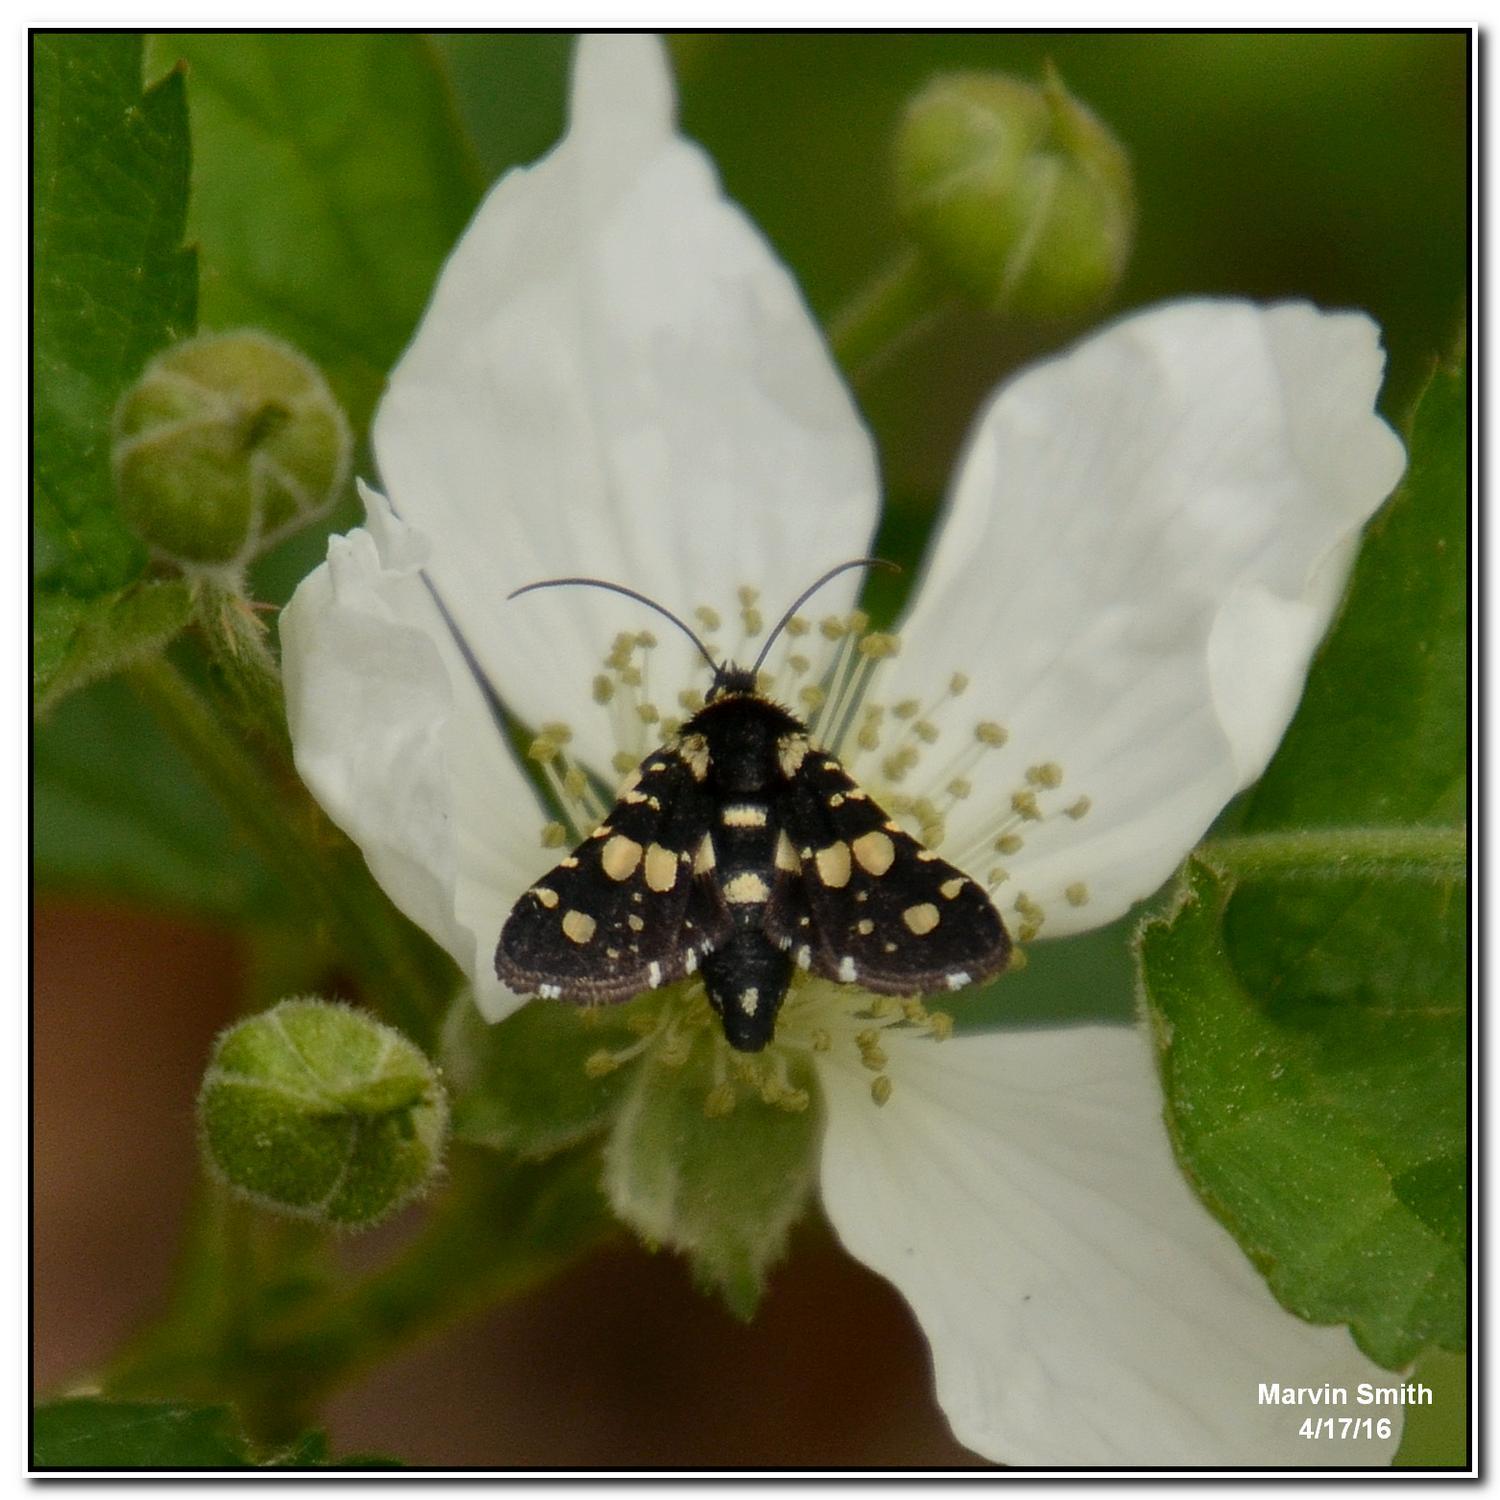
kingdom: Animalia
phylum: Arthropoda
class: Insecta
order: Lepidoptera
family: Thyrididae
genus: Pseudothyris
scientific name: Pseudothyris sepulchralis
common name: Mournful thyris moth
